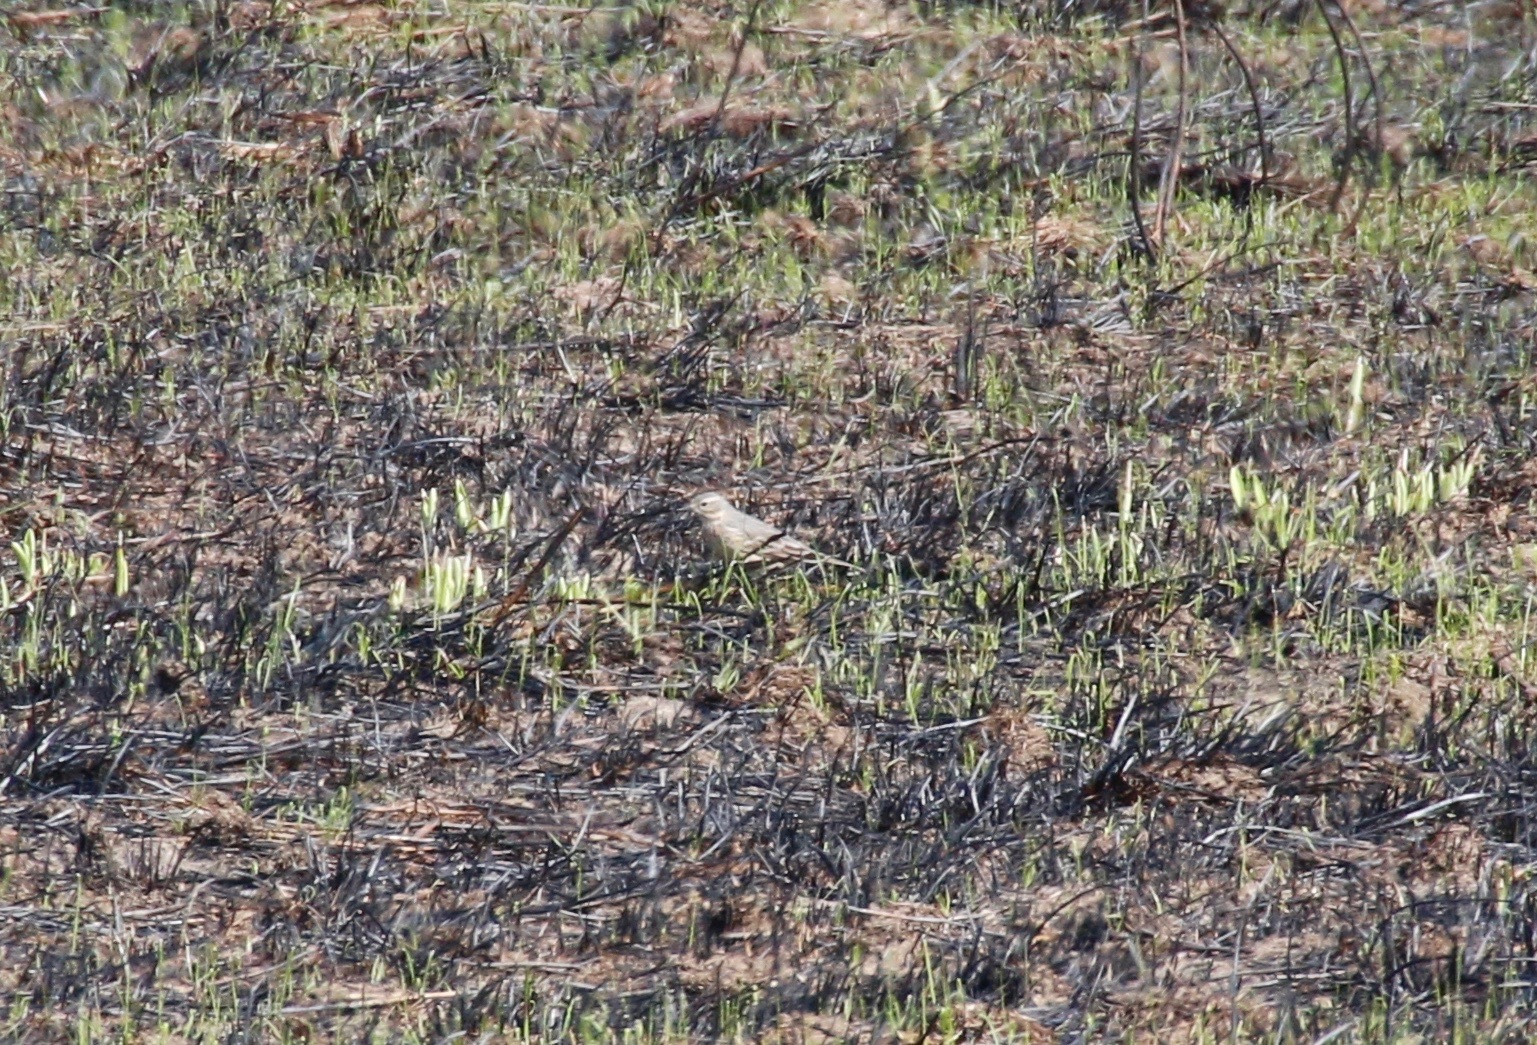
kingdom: Animalia
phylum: Chordata
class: Aves
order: Passeriformes
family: Motacillidae
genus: Anthus
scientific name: Anthus rubescens
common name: Buff-bellied pipit
